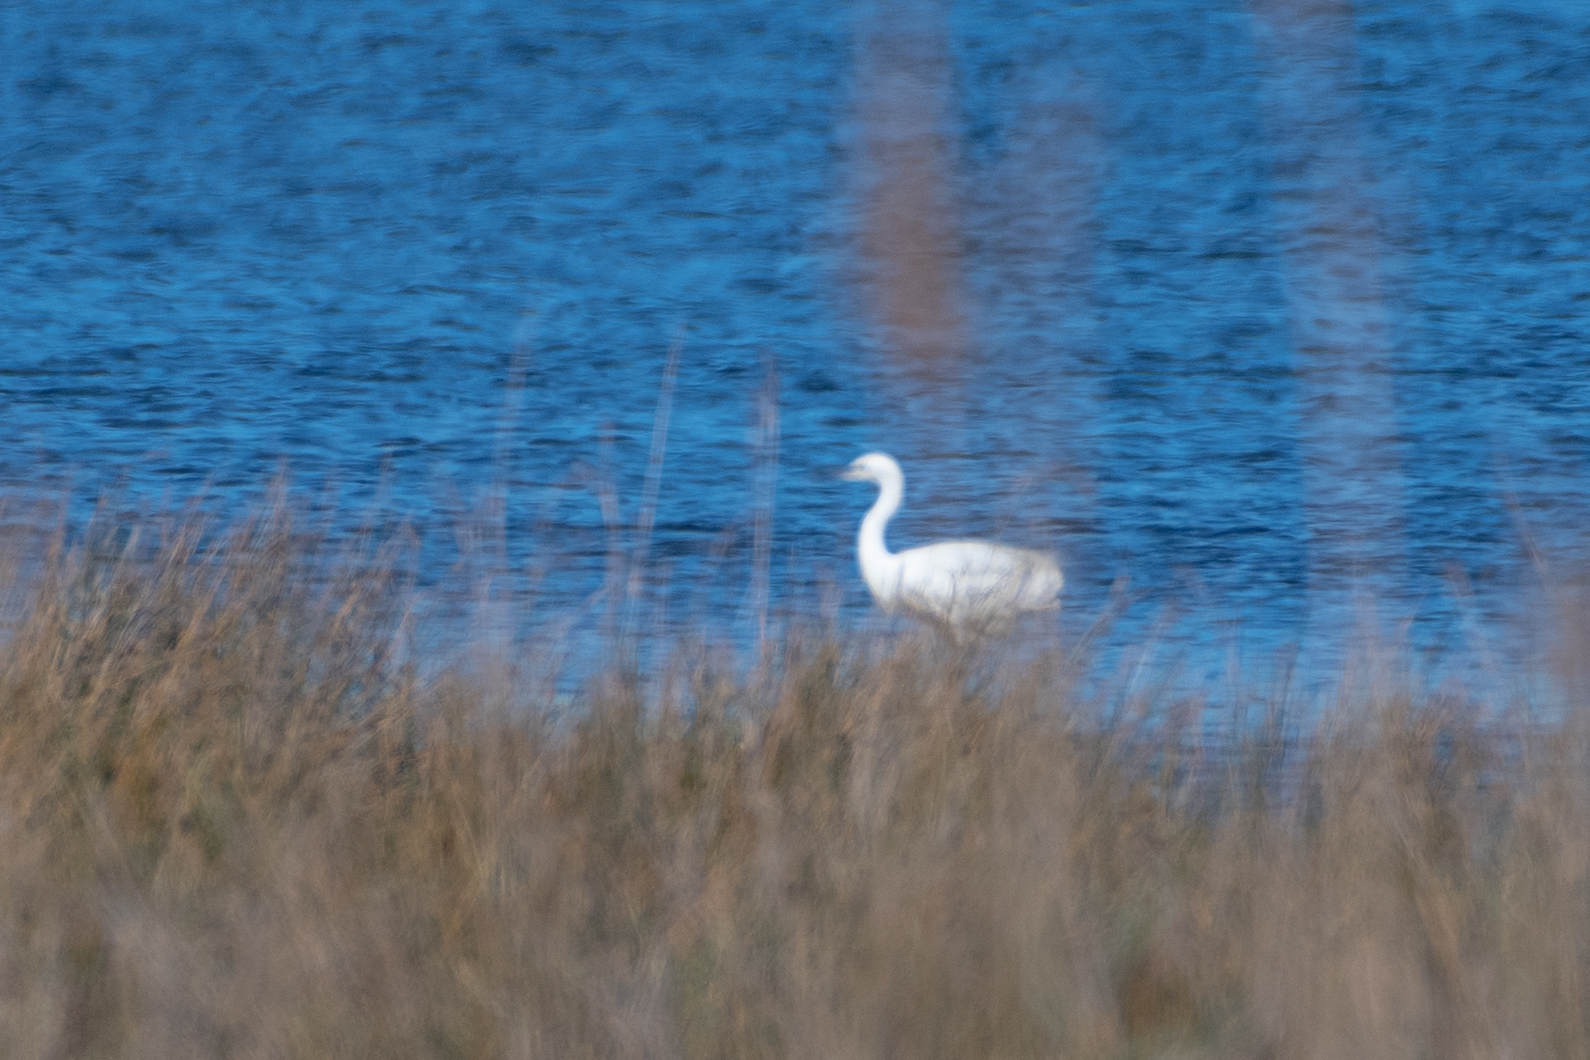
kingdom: Animalia
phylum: Chordata
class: Aves
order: Pelecaniformes
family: Ardeidae
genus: Egretta
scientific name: Egretta garzetta
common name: Little egret
